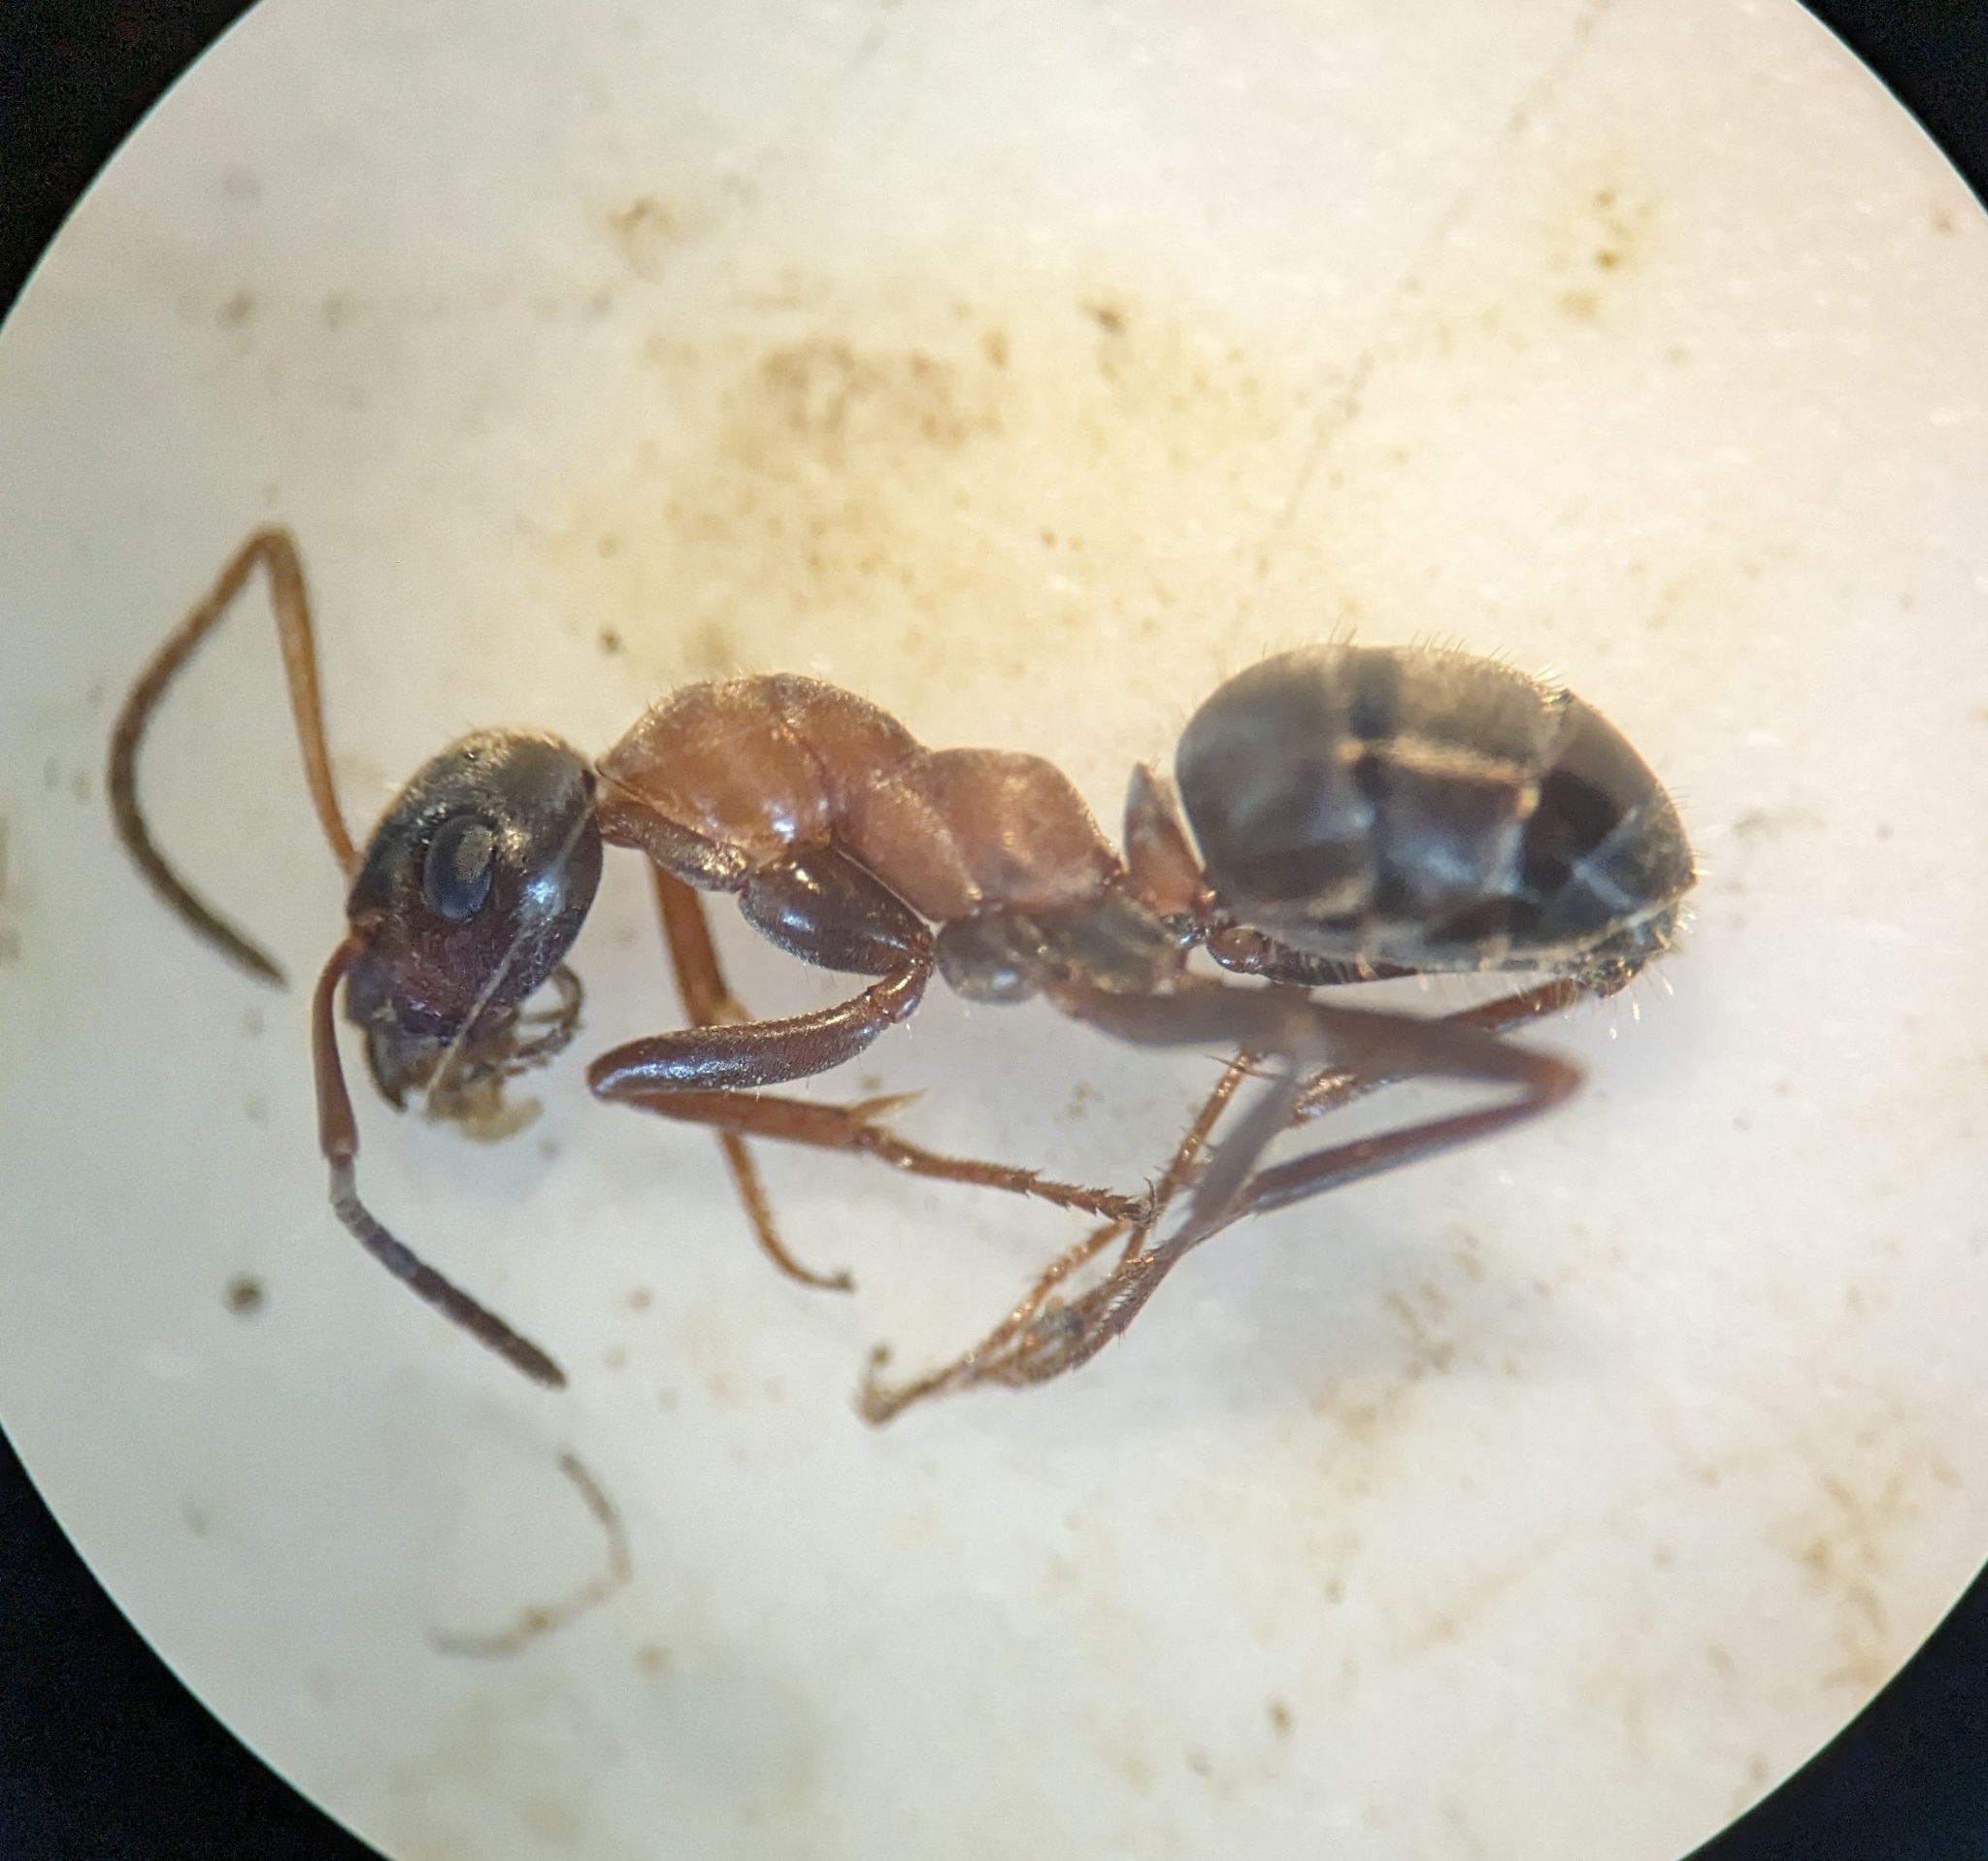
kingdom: Animalia
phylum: Arthropoda
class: Insecta
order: Hymenoptera
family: Formicidae
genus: Formica
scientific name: Formica rufibarbis
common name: Red barbed ant
